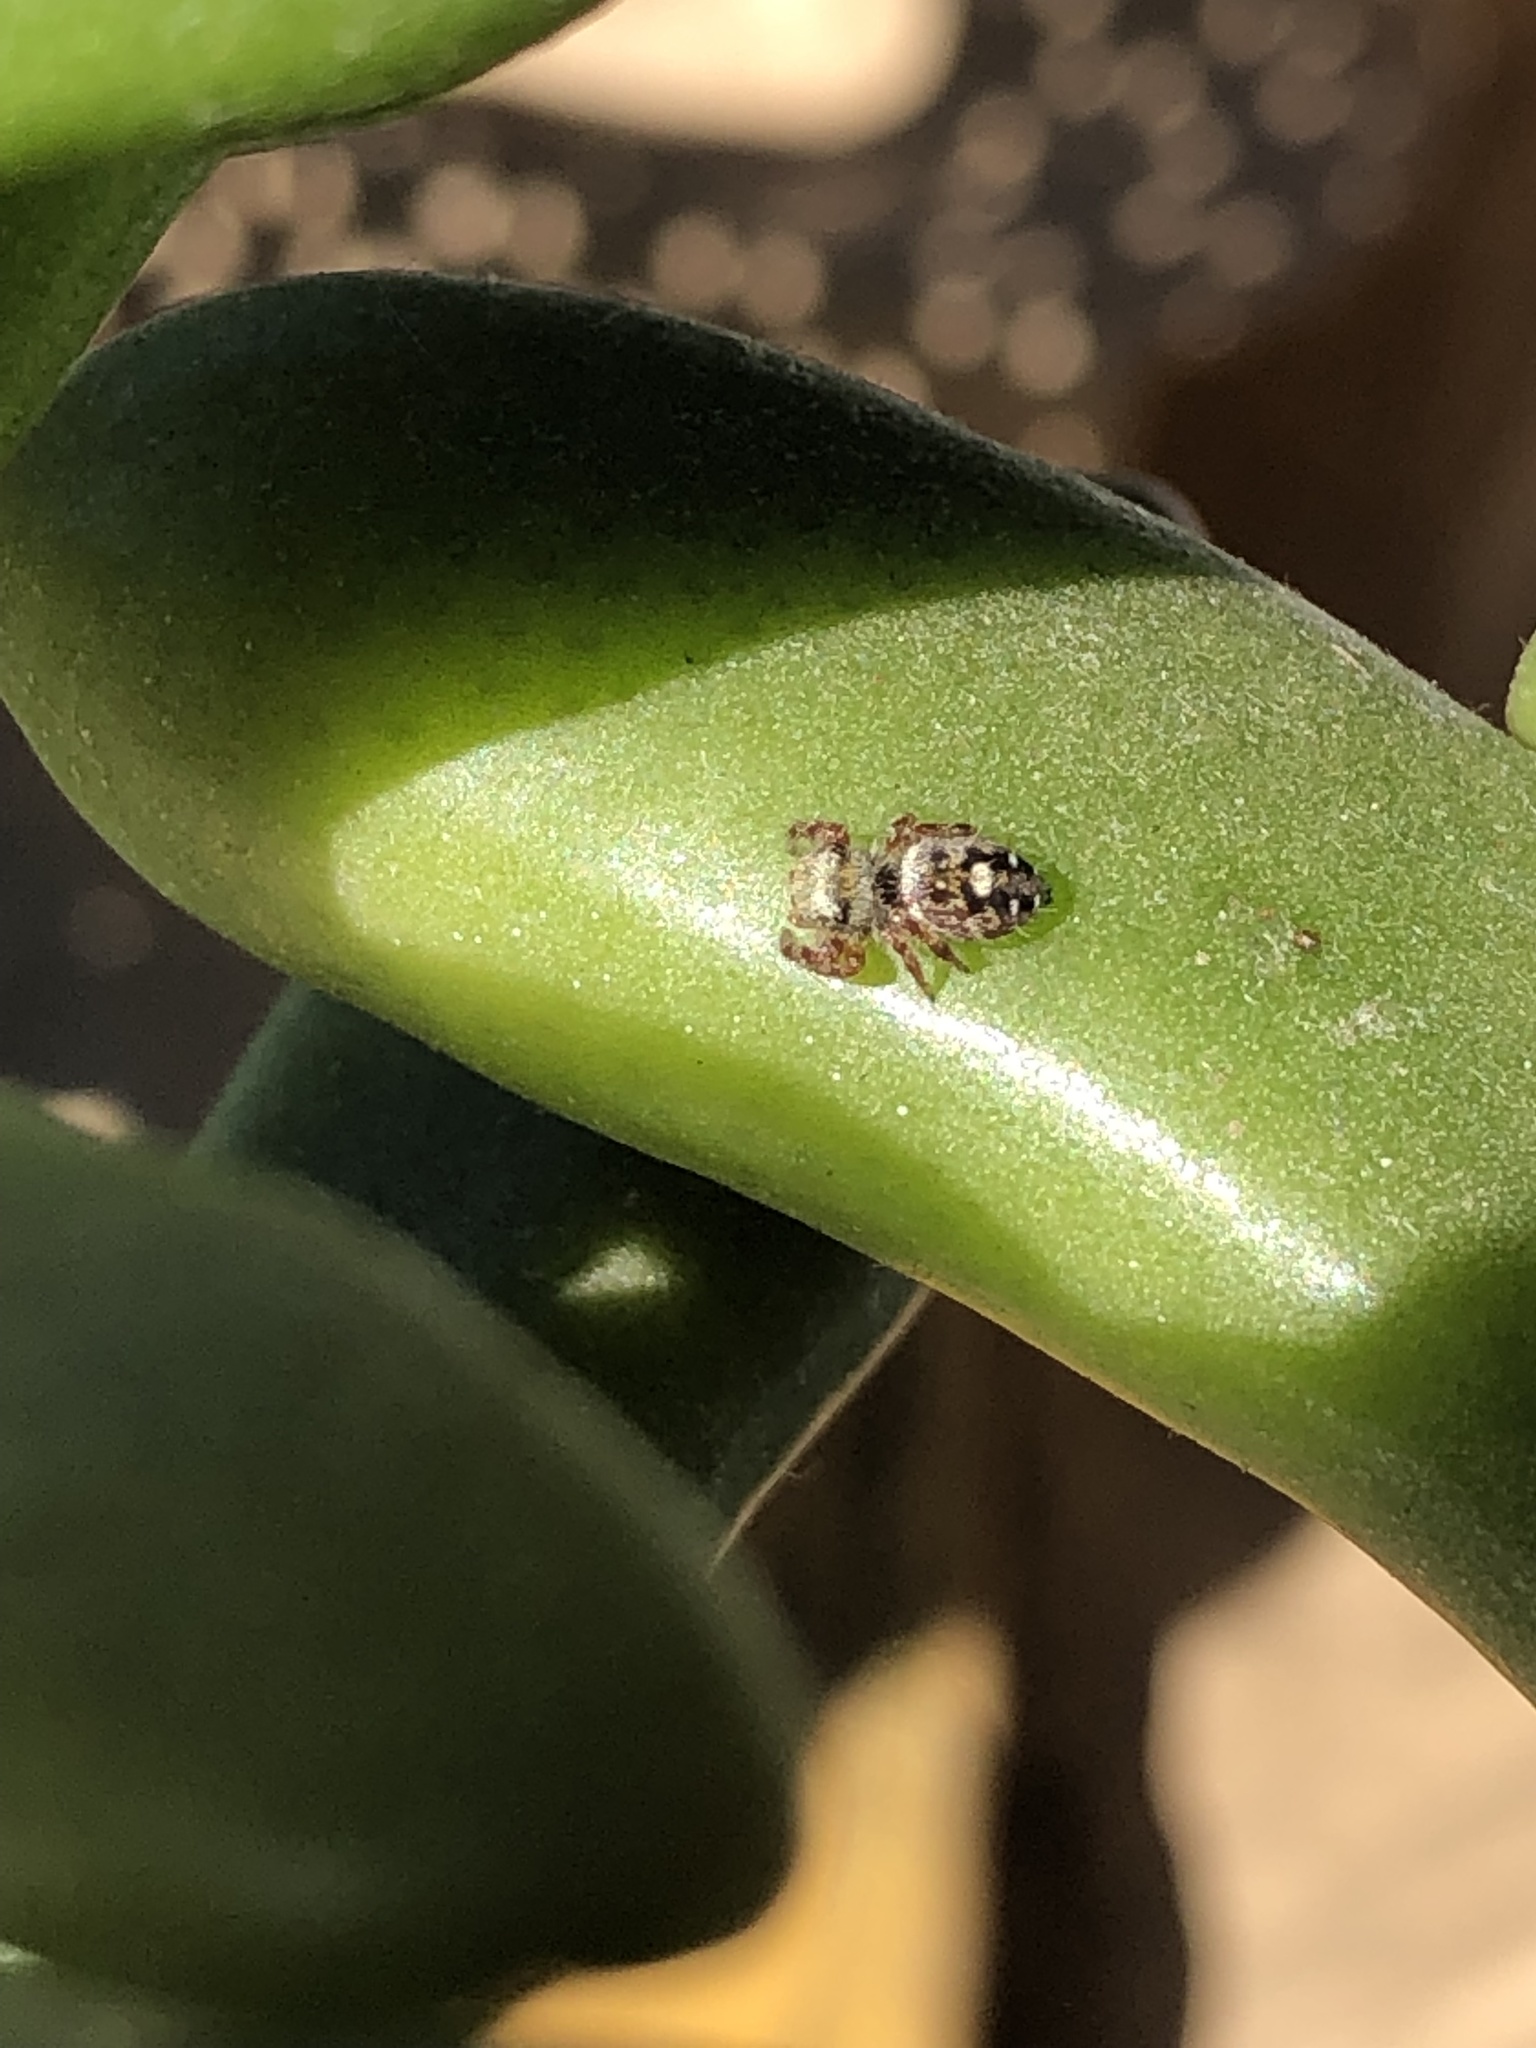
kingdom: Animalia
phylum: Arthropoda
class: Arachnida
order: Araneae
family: Salticidae
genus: Phidippus
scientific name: Phidippus audax
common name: Bold jumper
